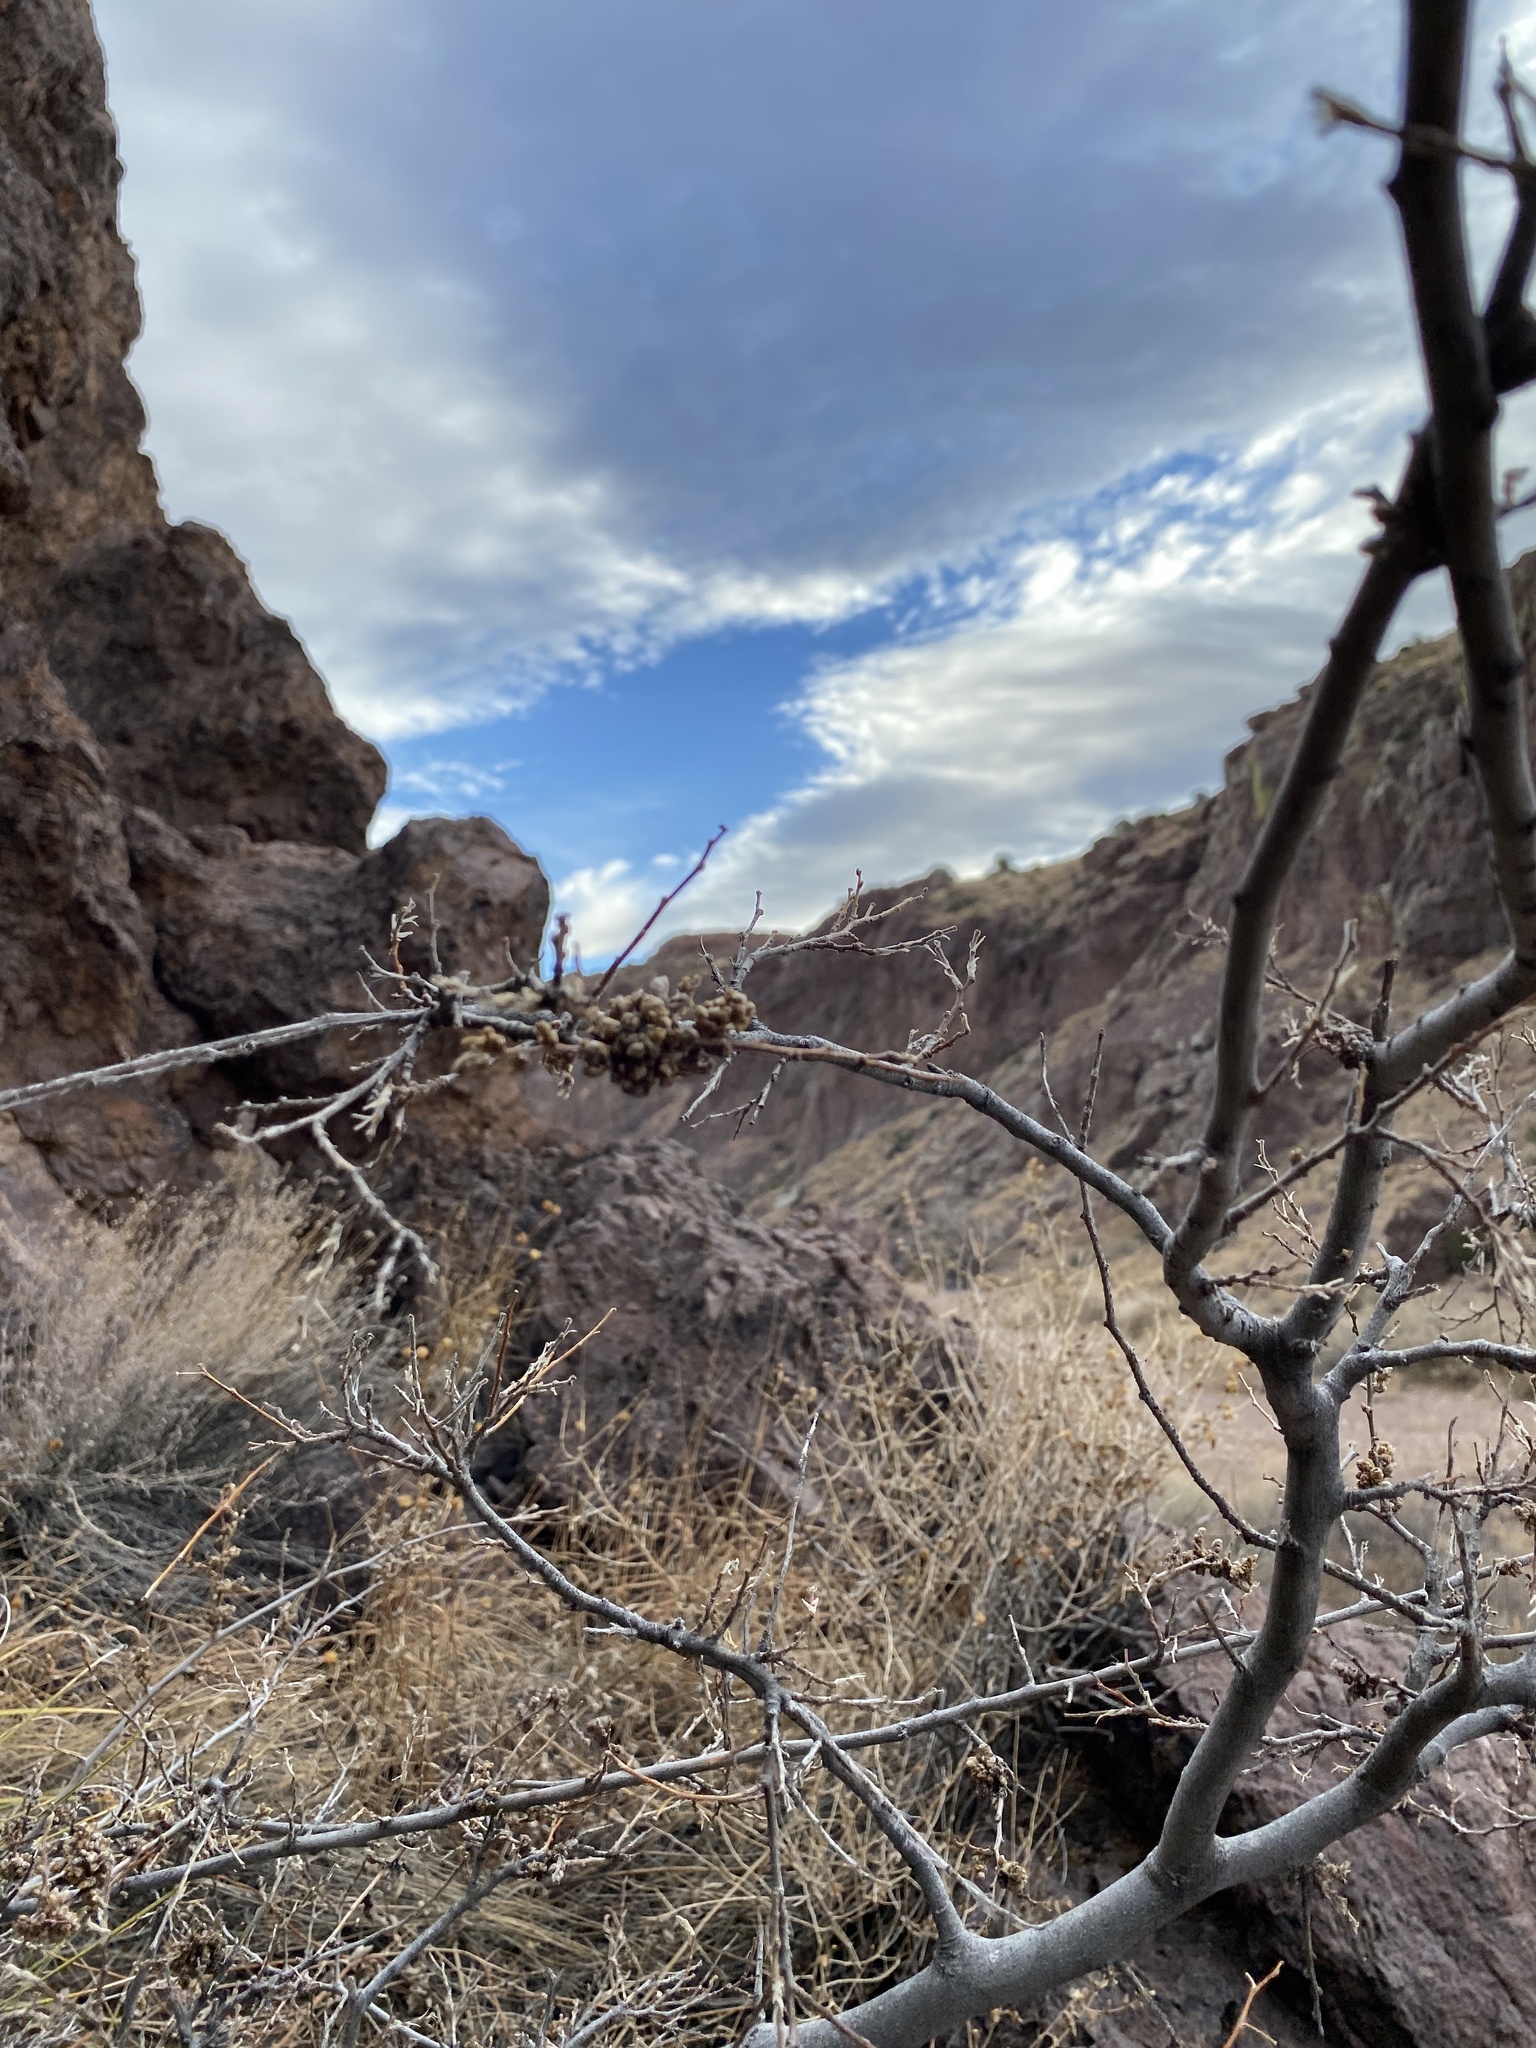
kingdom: Plantae
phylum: Tracheophyta
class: Magnoliopsida
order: Rosales
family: Cannabaceae
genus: Celtis
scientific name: Celtis reticulata
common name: Netleaf hackberry
